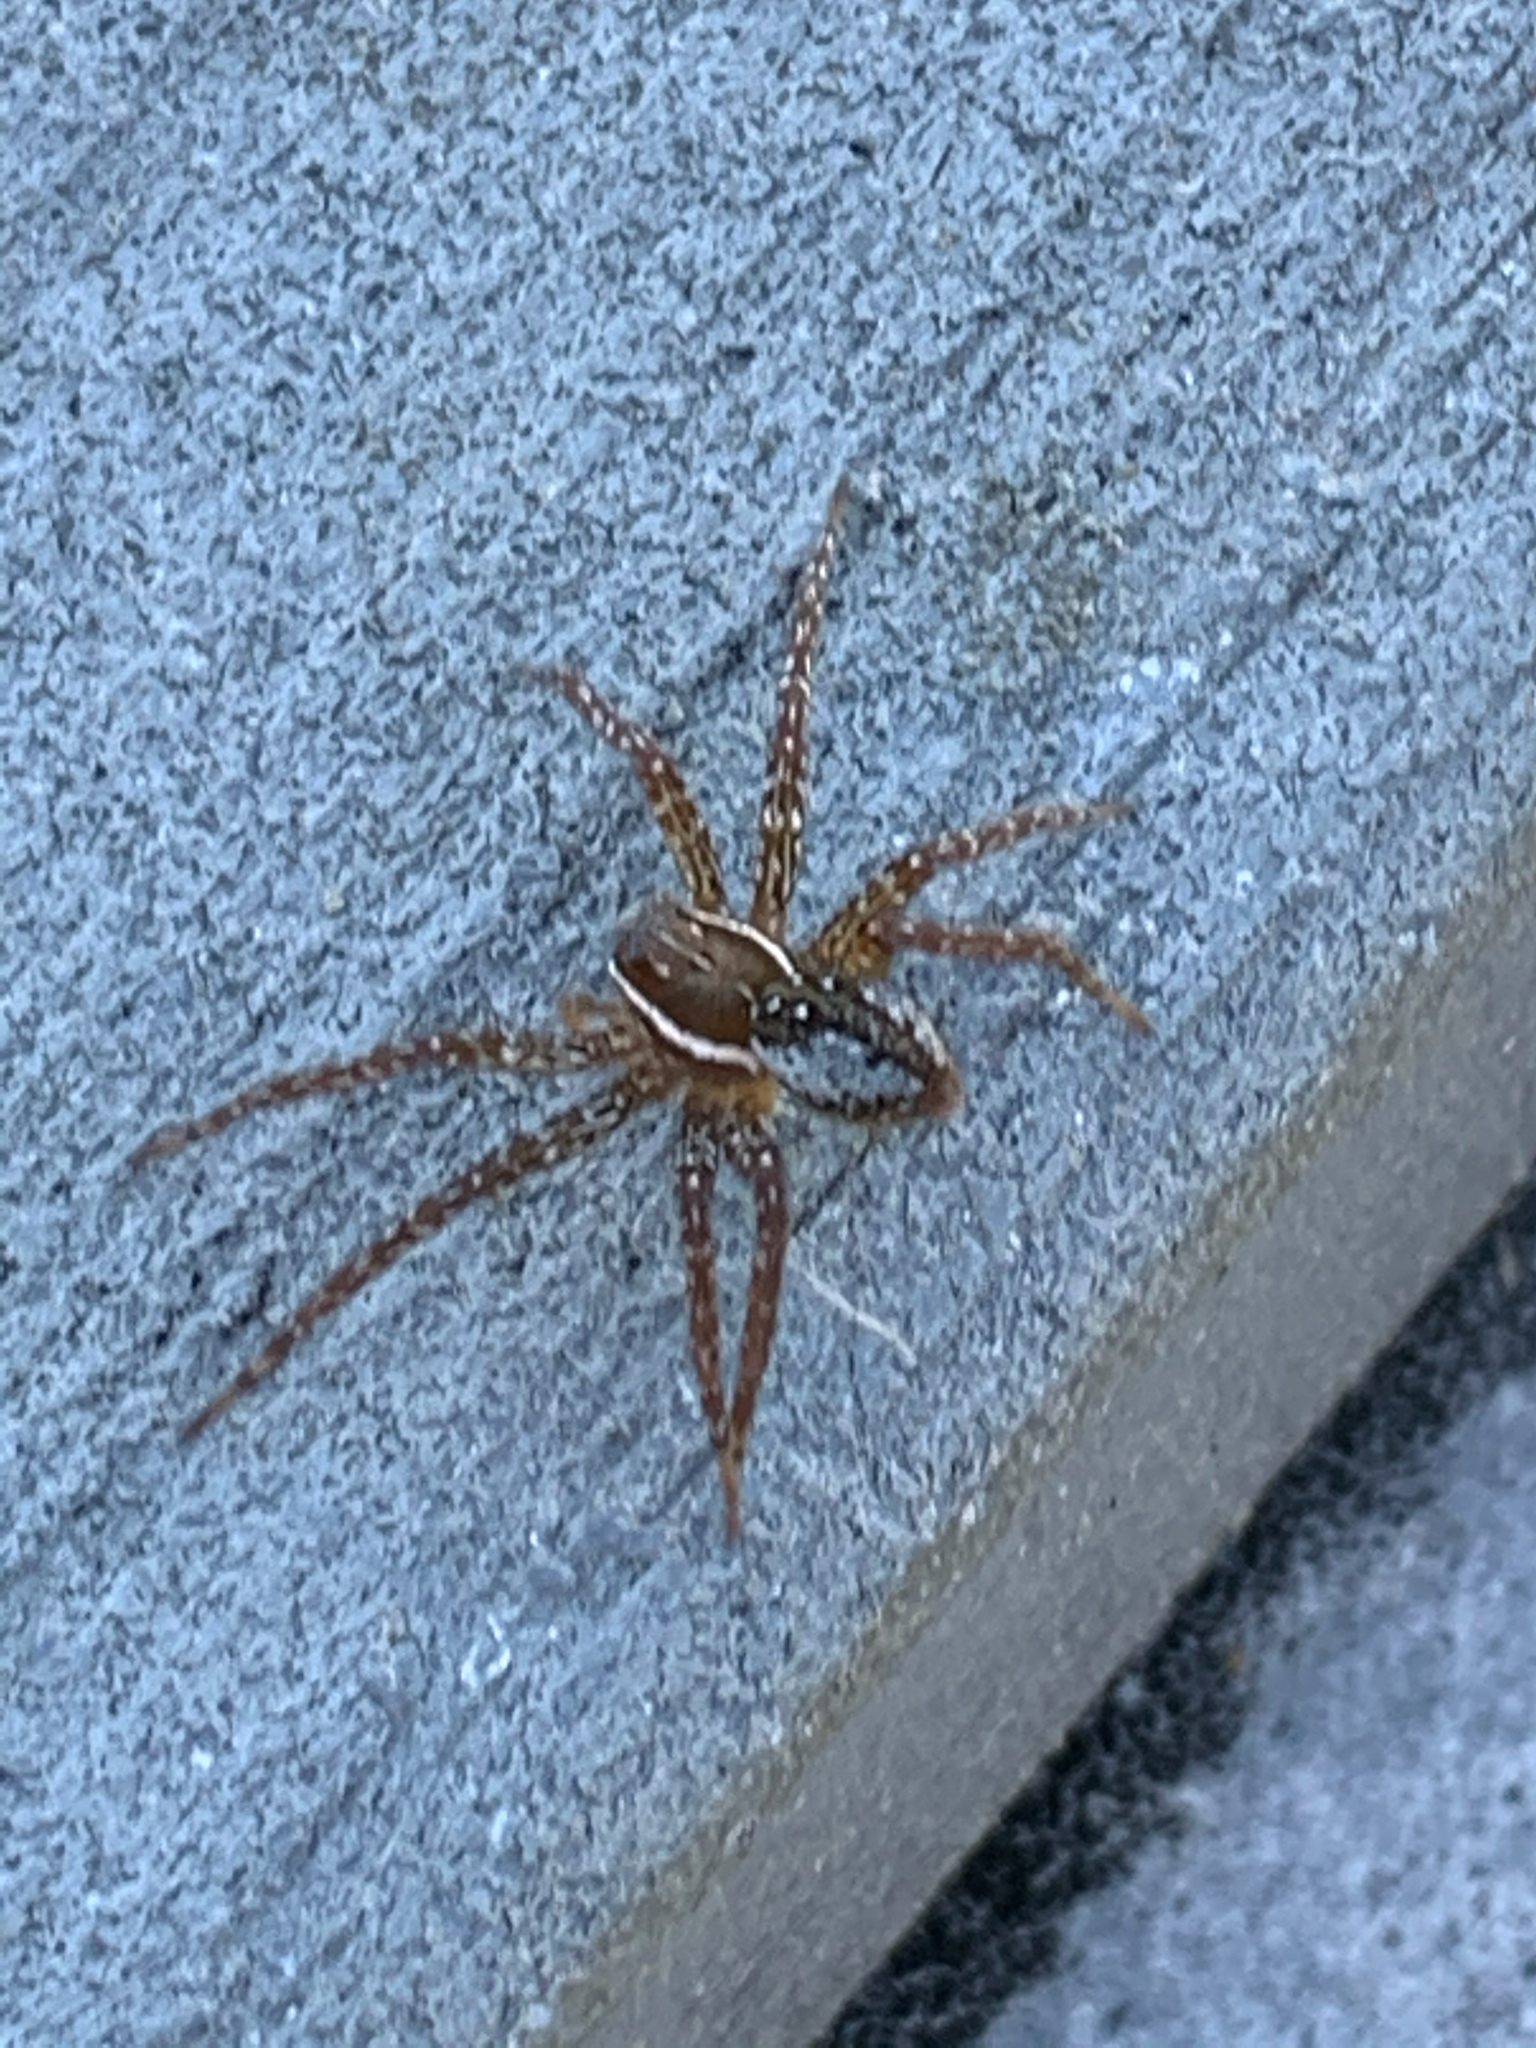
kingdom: Animalia
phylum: Arthropoda
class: Arachnida
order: Araneae
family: Pisauridae
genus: Dolomedes
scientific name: Dolomedes triton
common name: Six-spotted fishing spider
